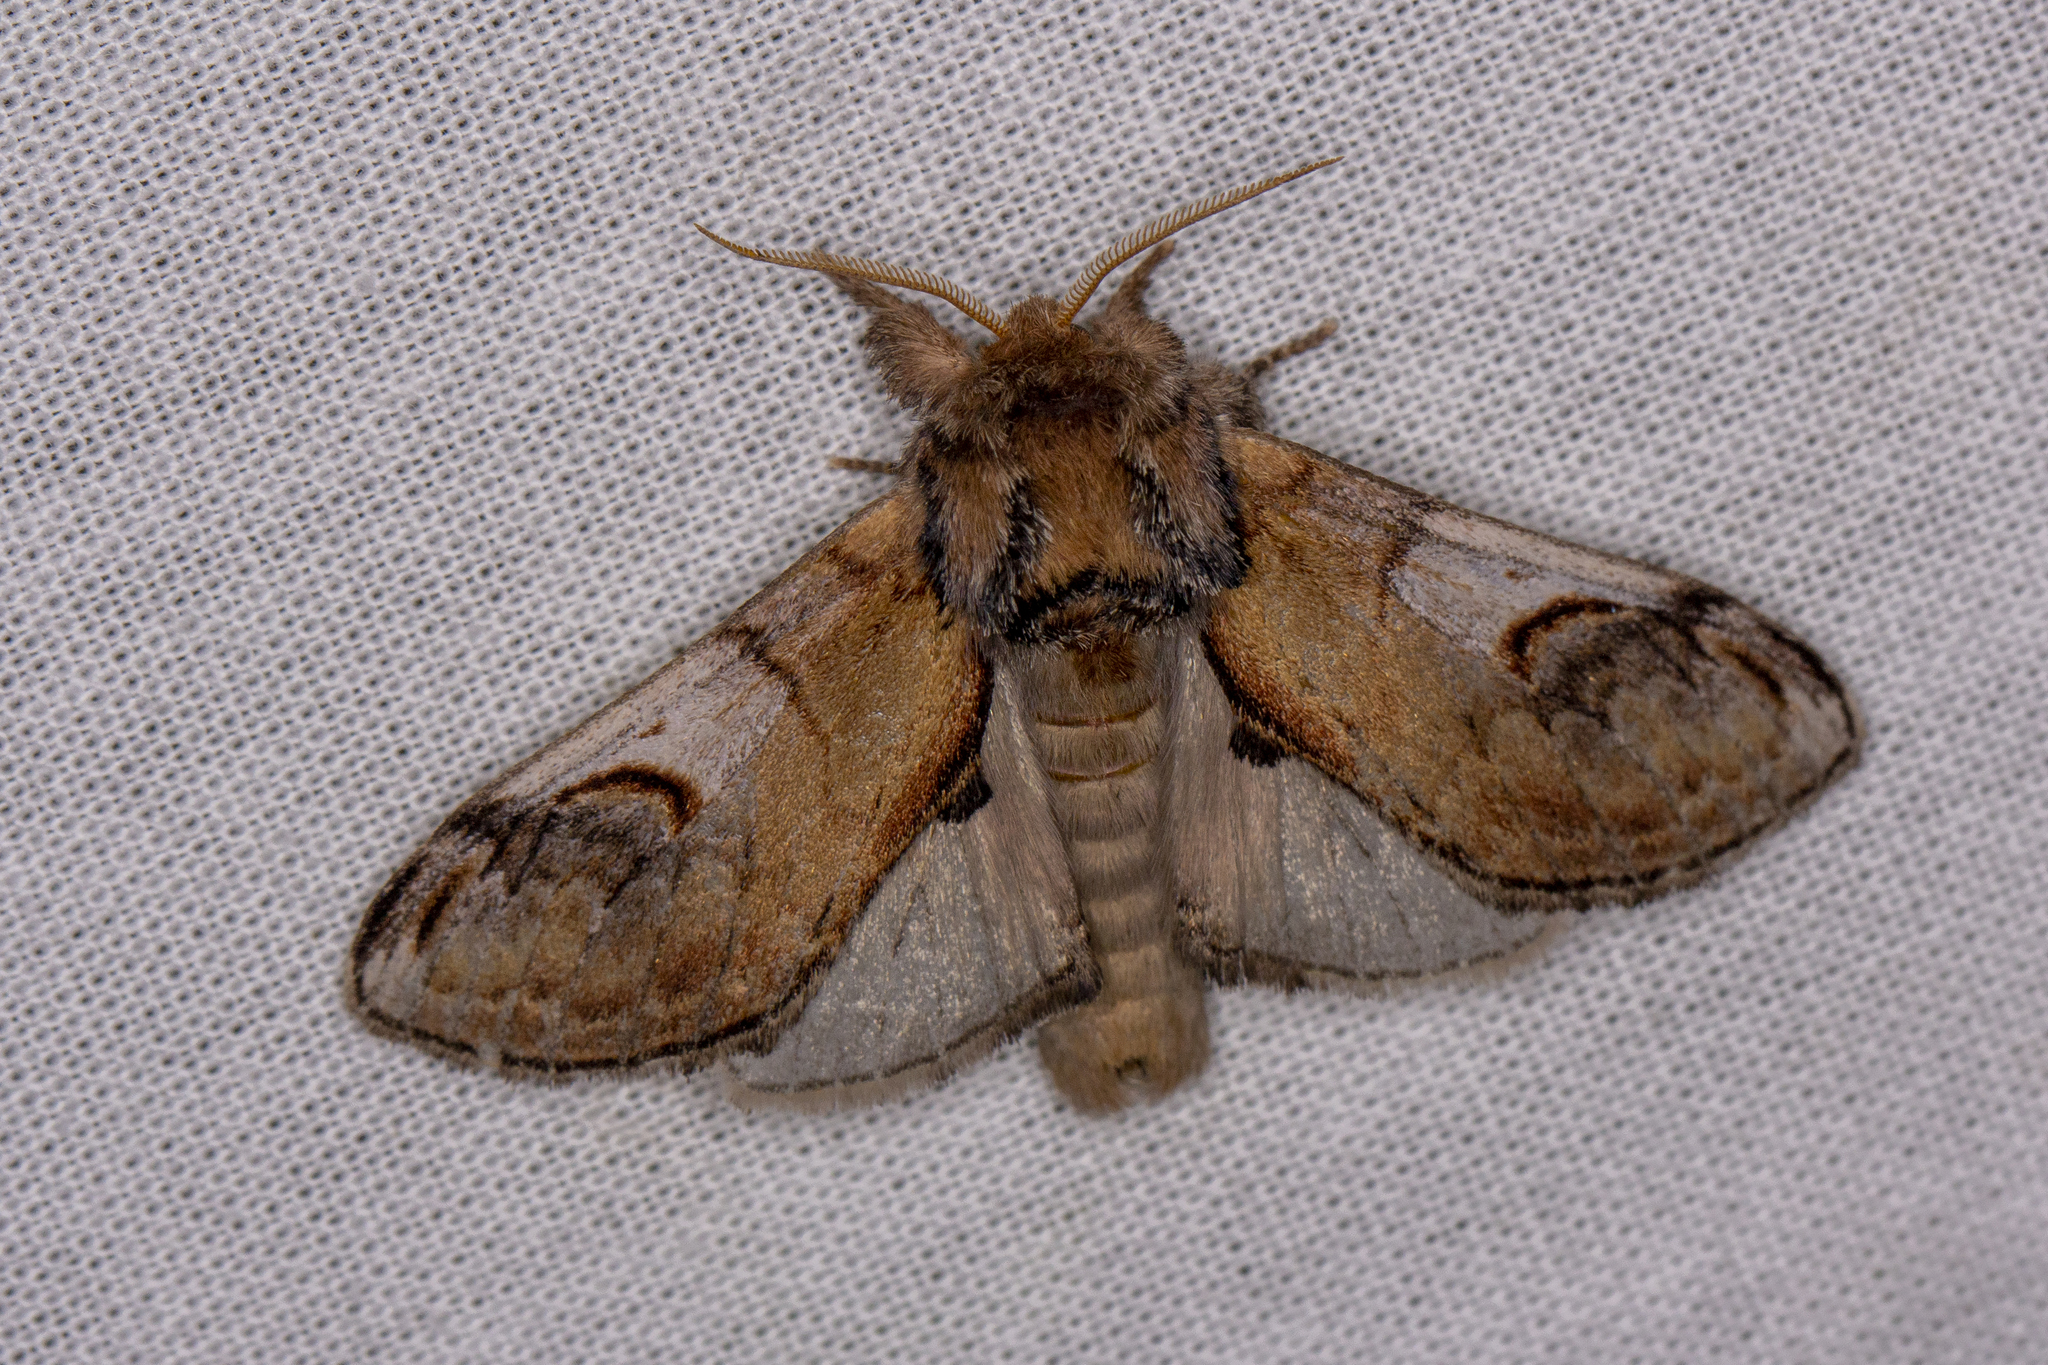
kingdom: Animalia
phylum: Arthropoda
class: Insecta
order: Lepidoptera
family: Notodontidae
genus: Notodonta
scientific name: Notodonta ziczac
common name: Pebble prominent
